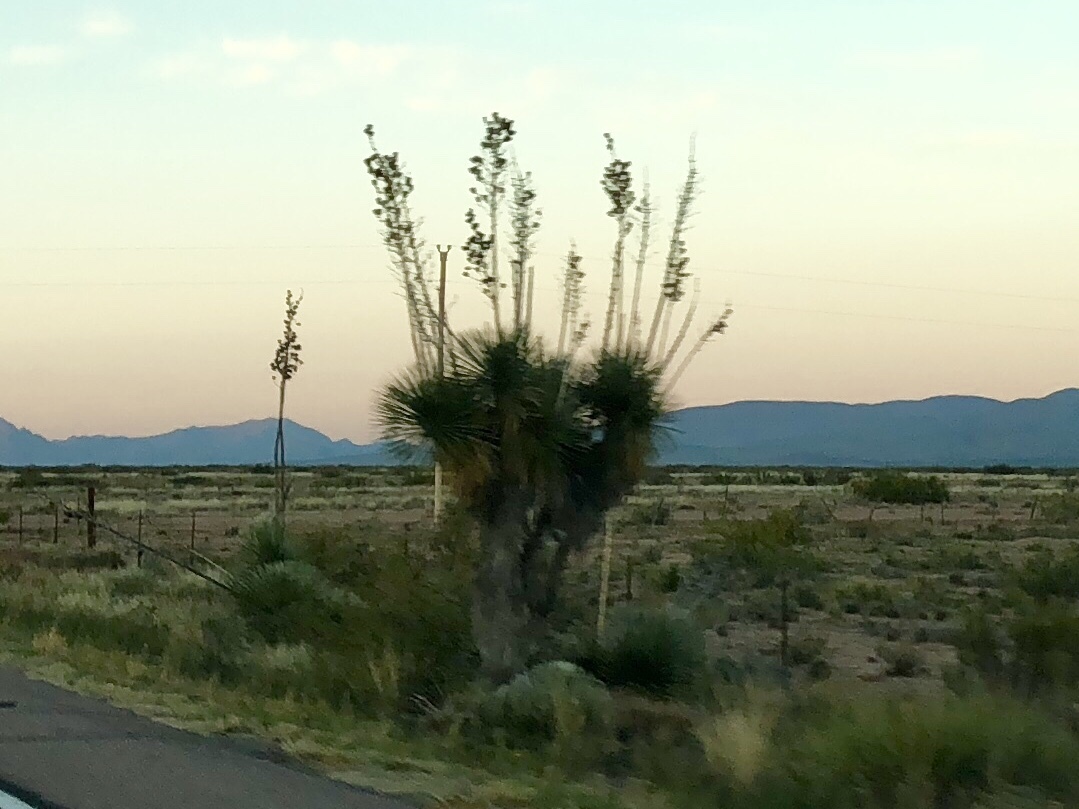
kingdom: Plantae
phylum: Tracheophyta
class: Liliopsida
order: Asparagales
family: Asparagaceae
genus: Yucca
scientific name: Yucca elata
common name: Palmella
